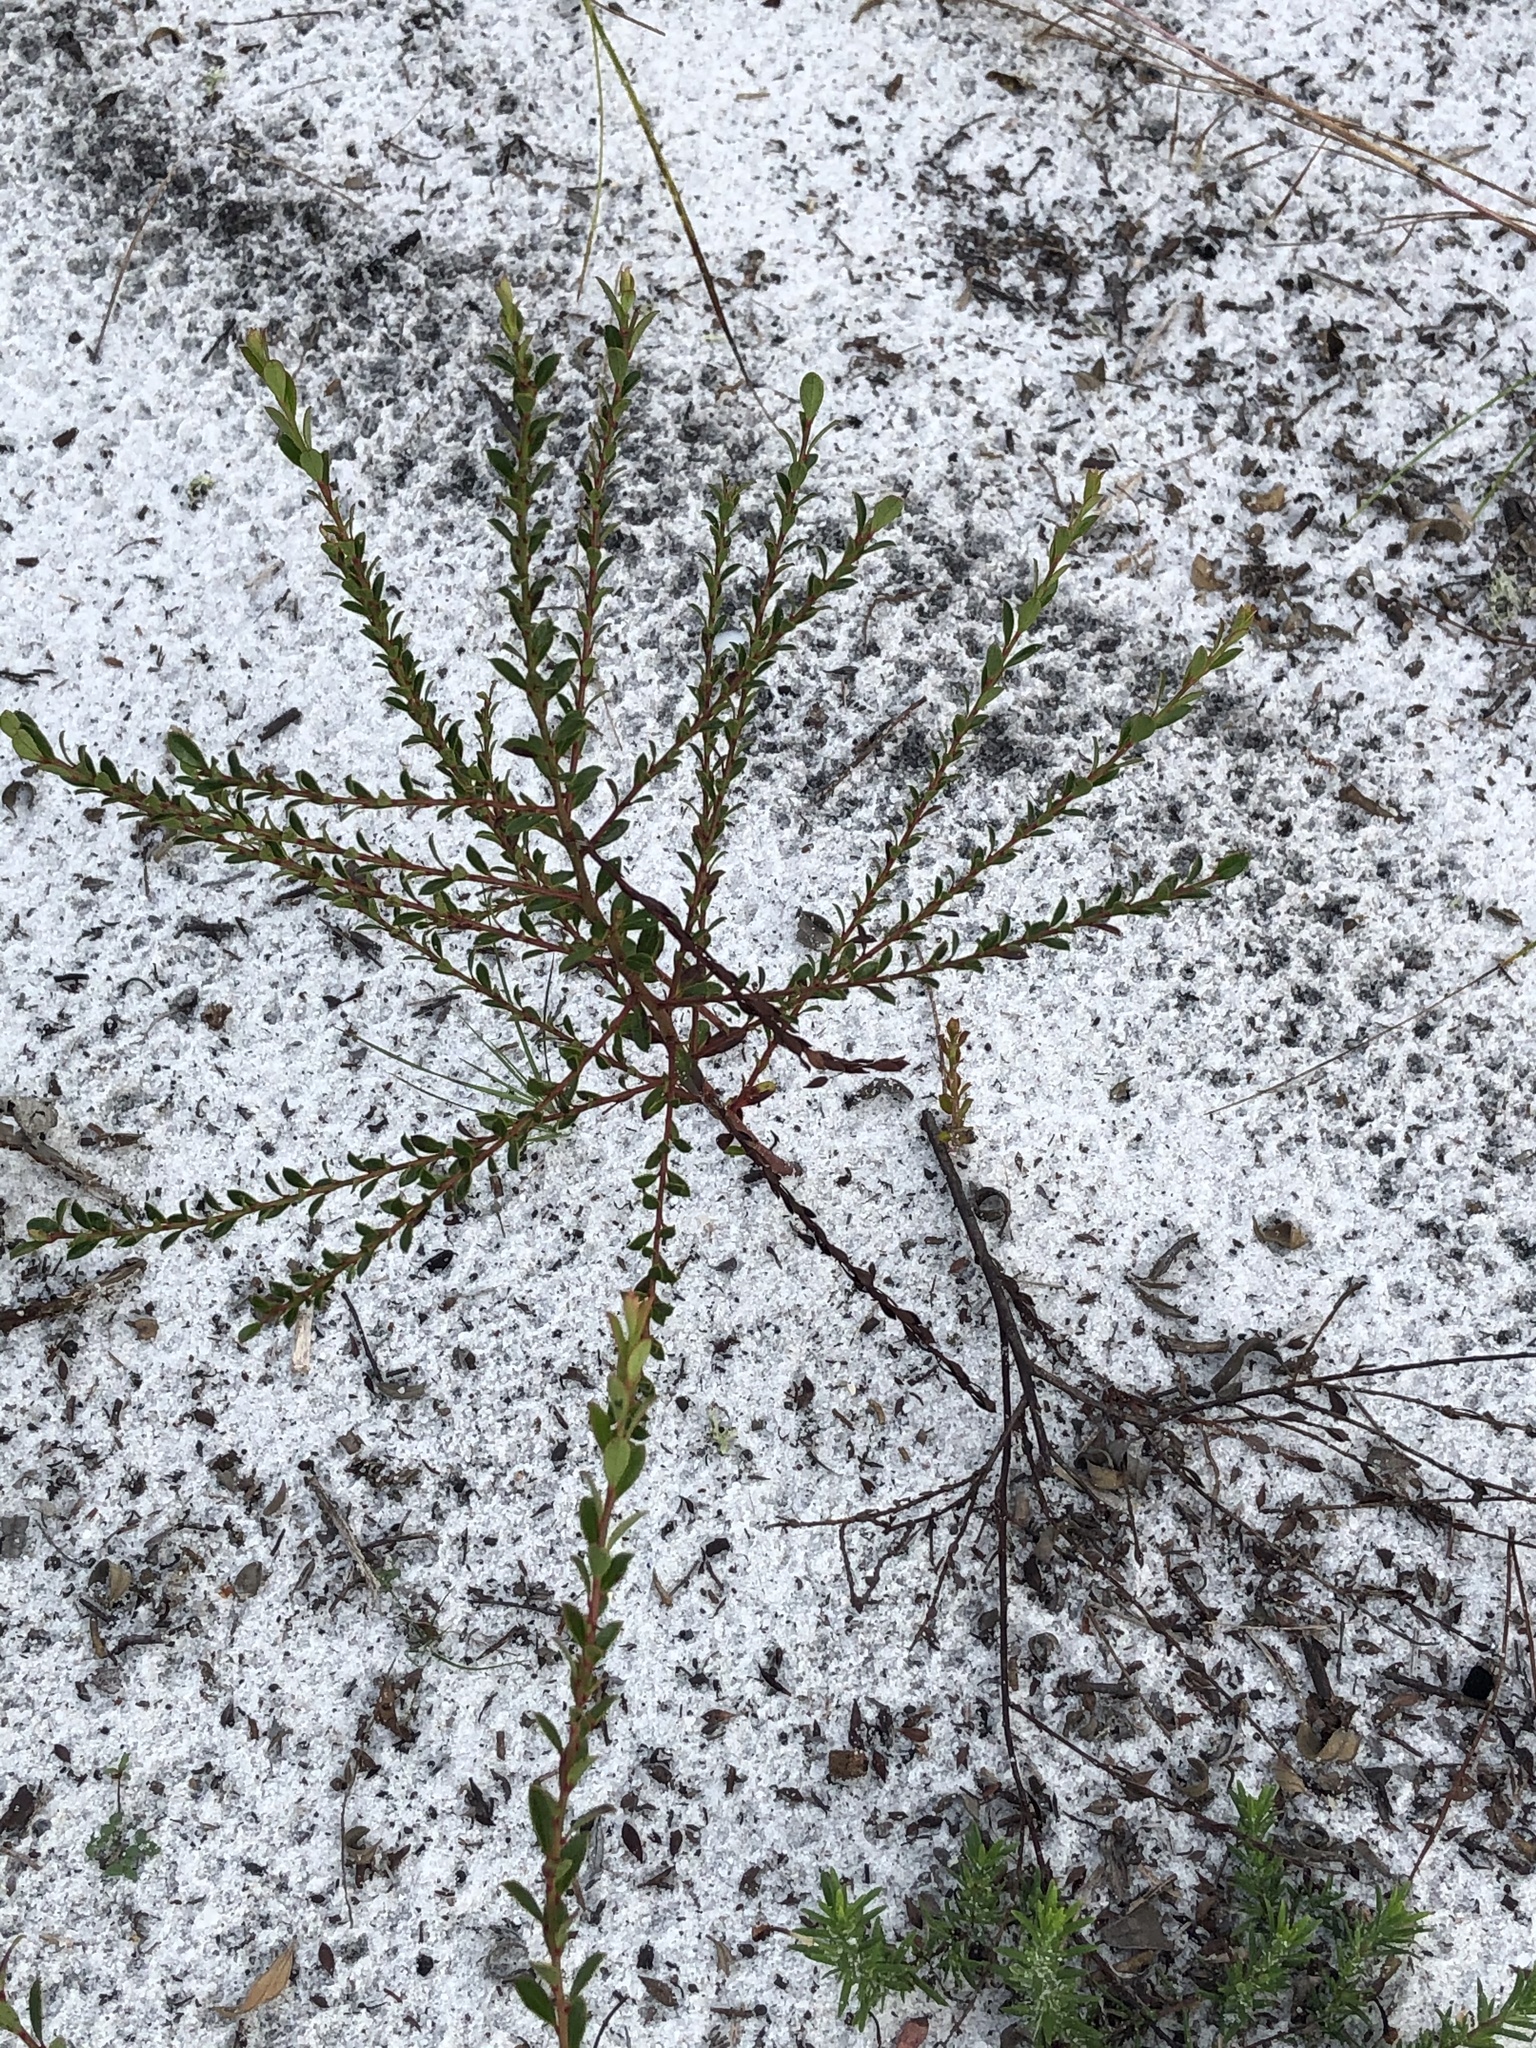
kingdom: Plantae
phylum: Tracheophyta
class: Magnoliopsida
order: Ericales
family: Ericaceae
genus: Vaccinium
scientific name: Vaccinium myrsinites
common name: Evergreen blueberry
